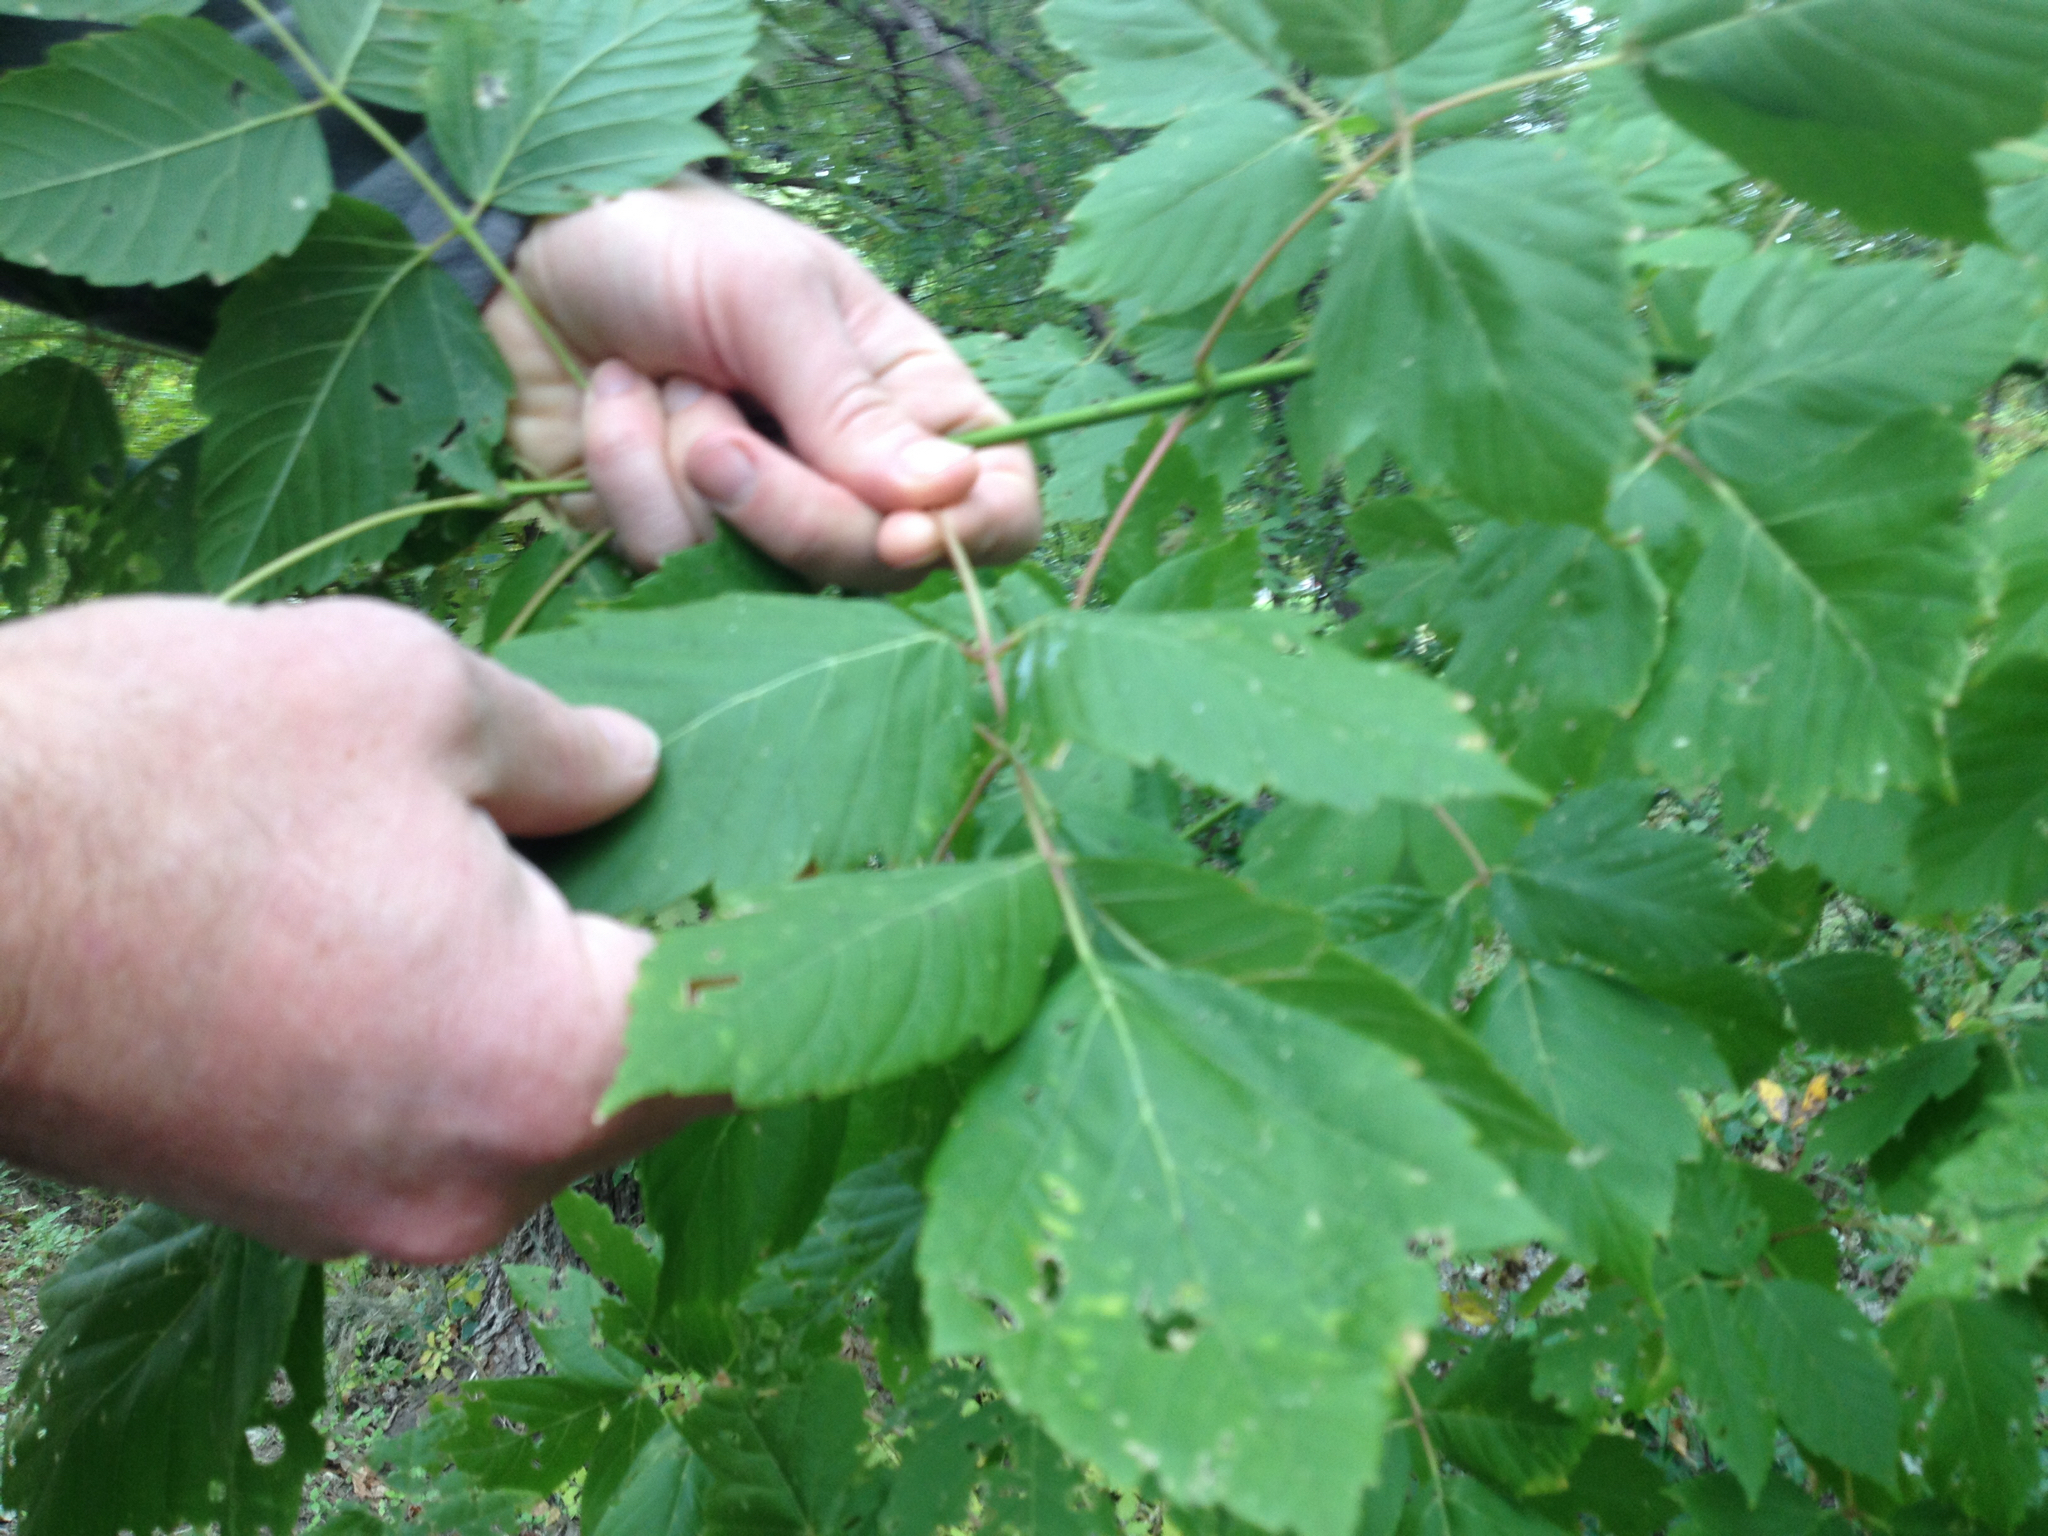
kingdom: Plantae
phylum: Tracheophyta
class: Magnoliopsida
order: Sapindales
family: Sapindaceae
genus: Acer
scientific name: Acer negundo
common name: Ashleaf maple
